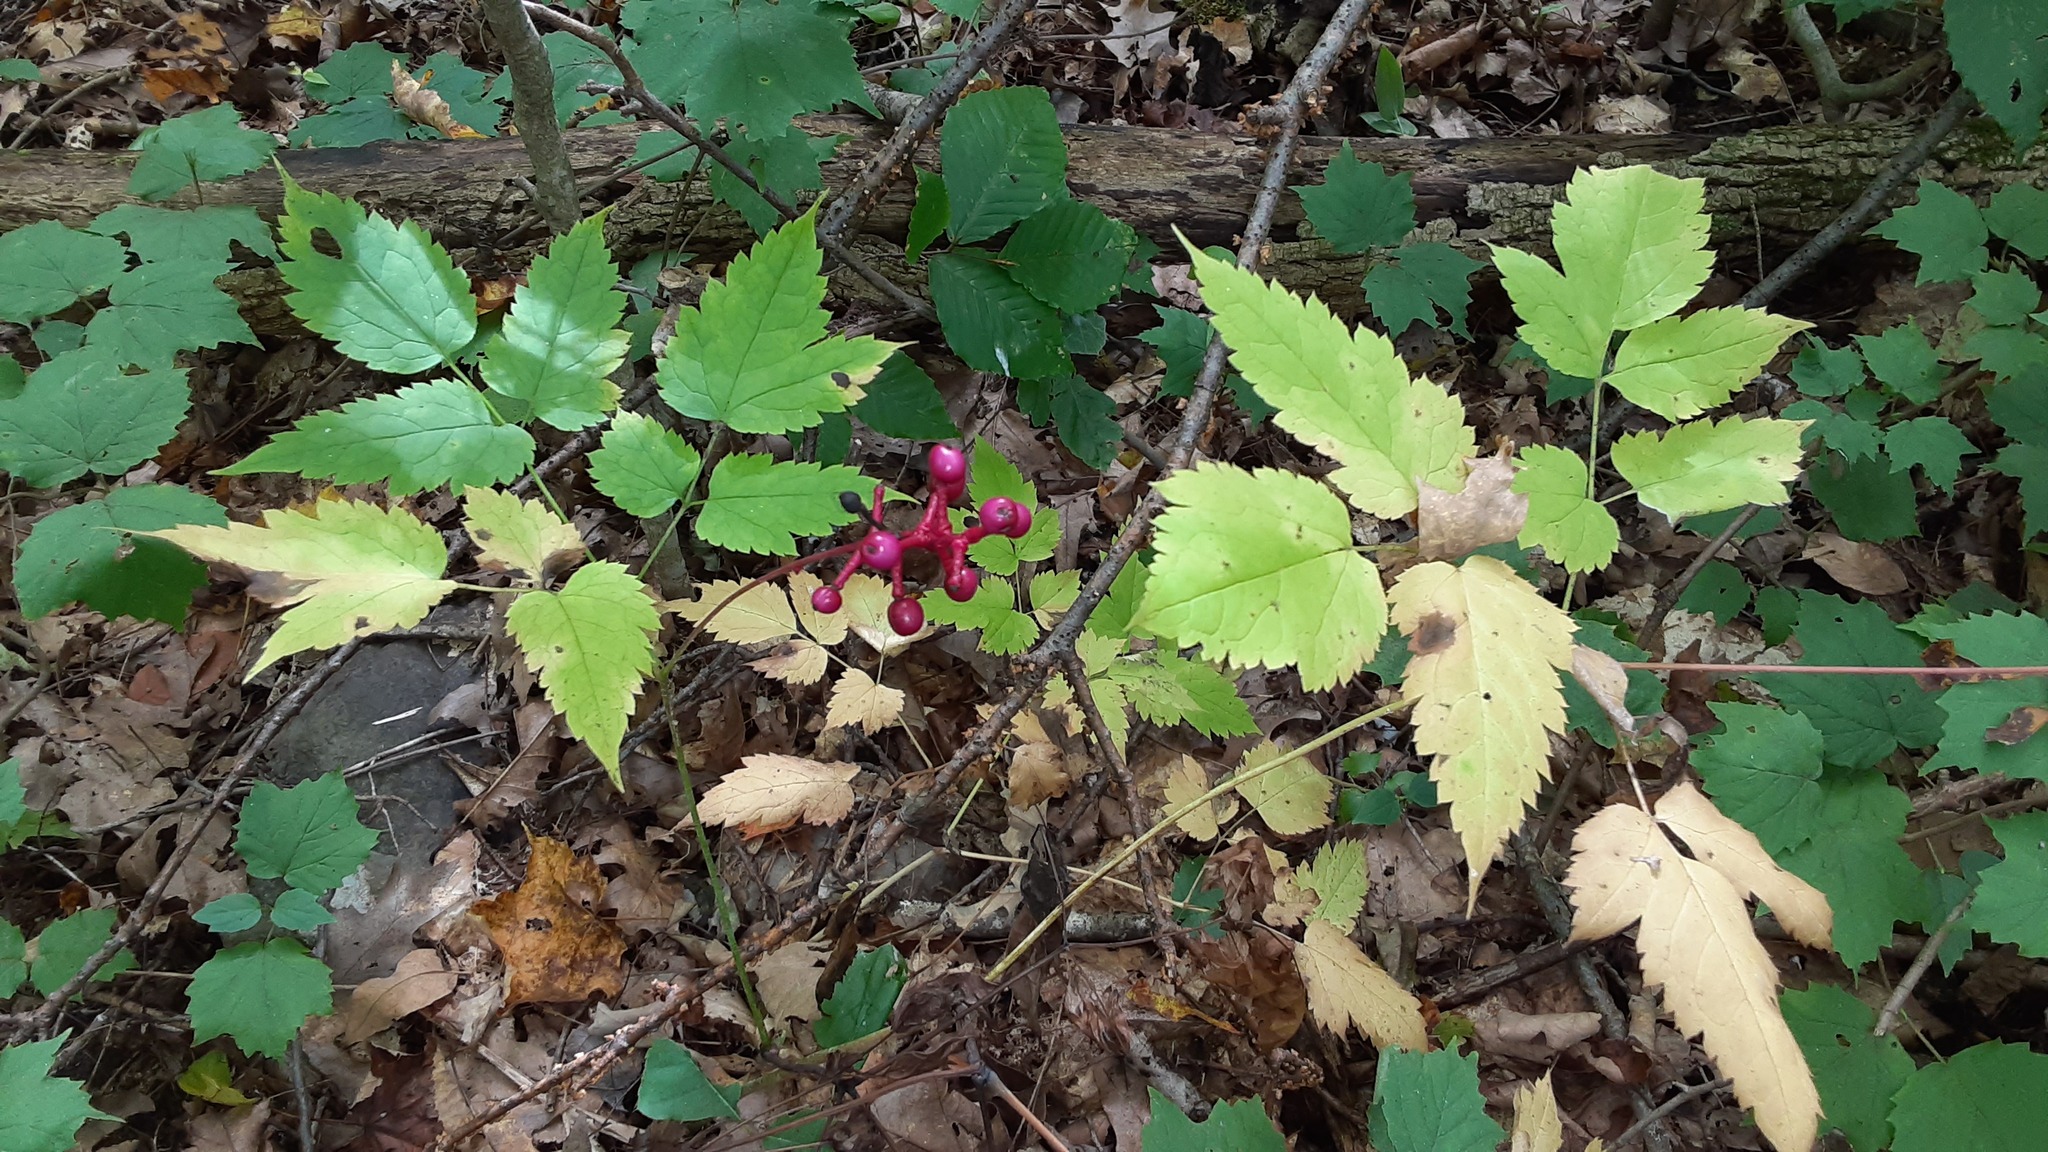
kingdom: Plantae
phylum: Tracheophyta
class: Magnoliopsida
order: Ranunculales
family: Ranunculaceae
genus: Actaea
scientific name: Actaea pachypoda
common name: Doll's-eyes
